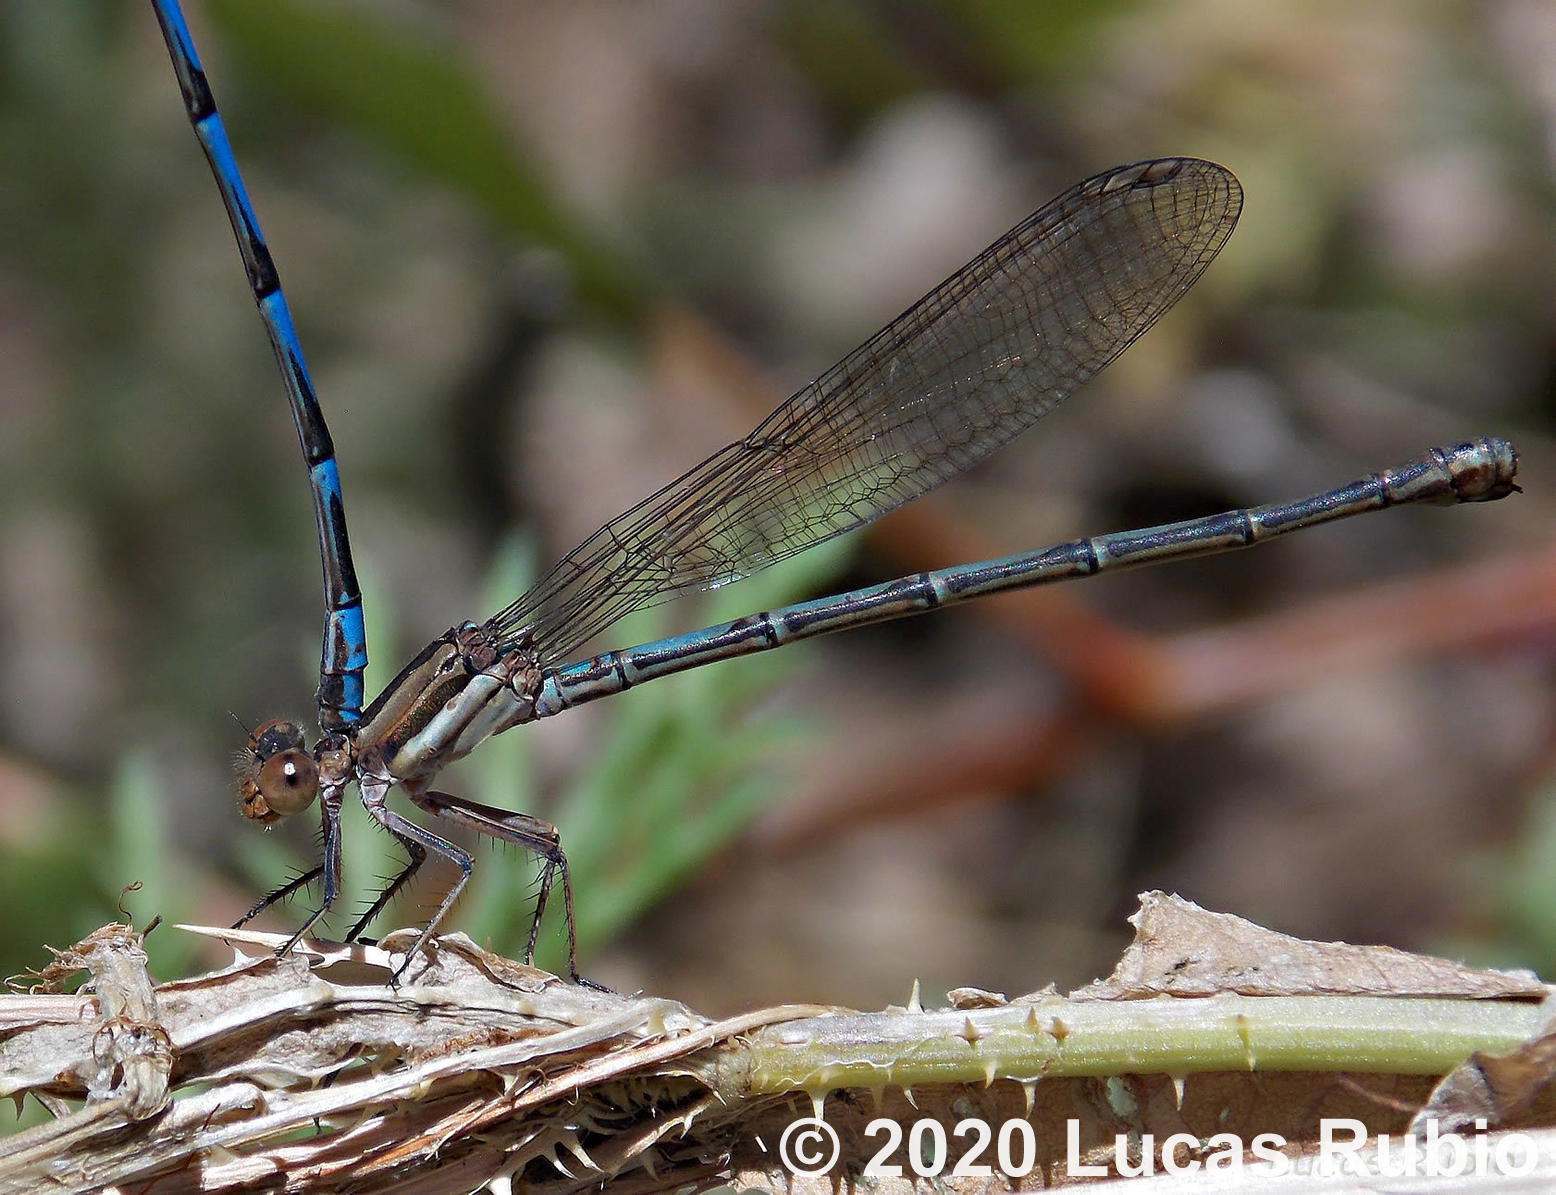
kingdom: Animalia
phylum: Arthropoda
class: Insecta
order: Odonata
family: Coenagrionidae
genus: Argia
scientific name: Argia joergenseni
